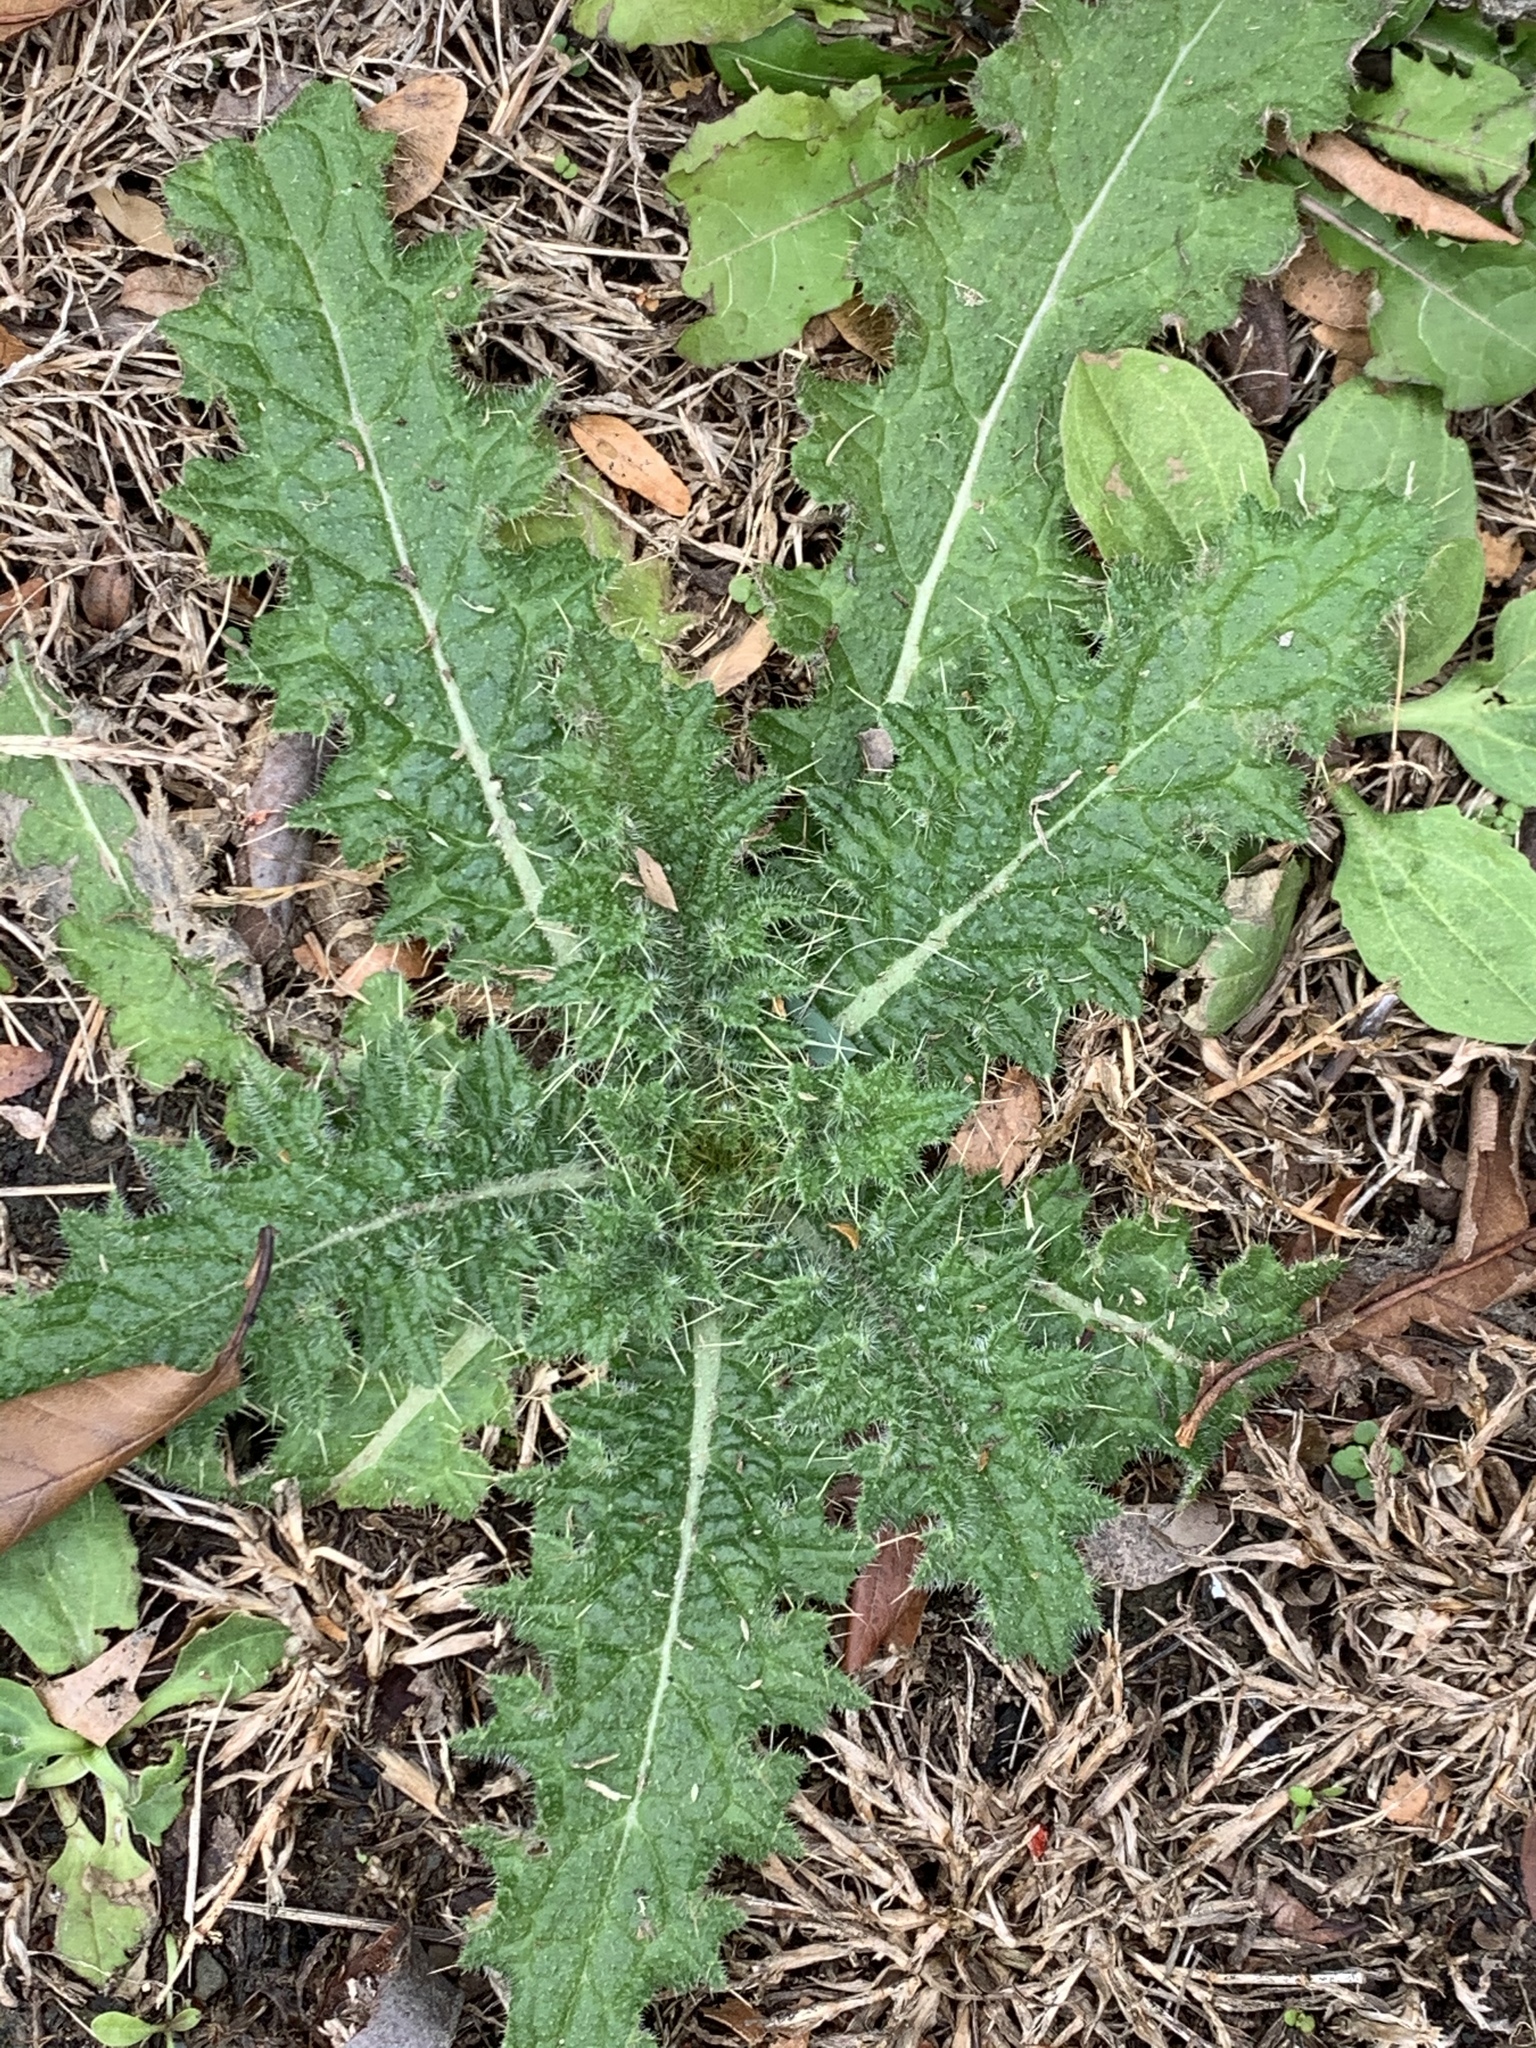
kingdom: Plantae
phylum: Tracheophyta
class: Magnoliopsida
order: Asterales
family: Asteraceae
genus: Cirsium
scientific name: Cirsium vulgare
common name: Bull thistle
